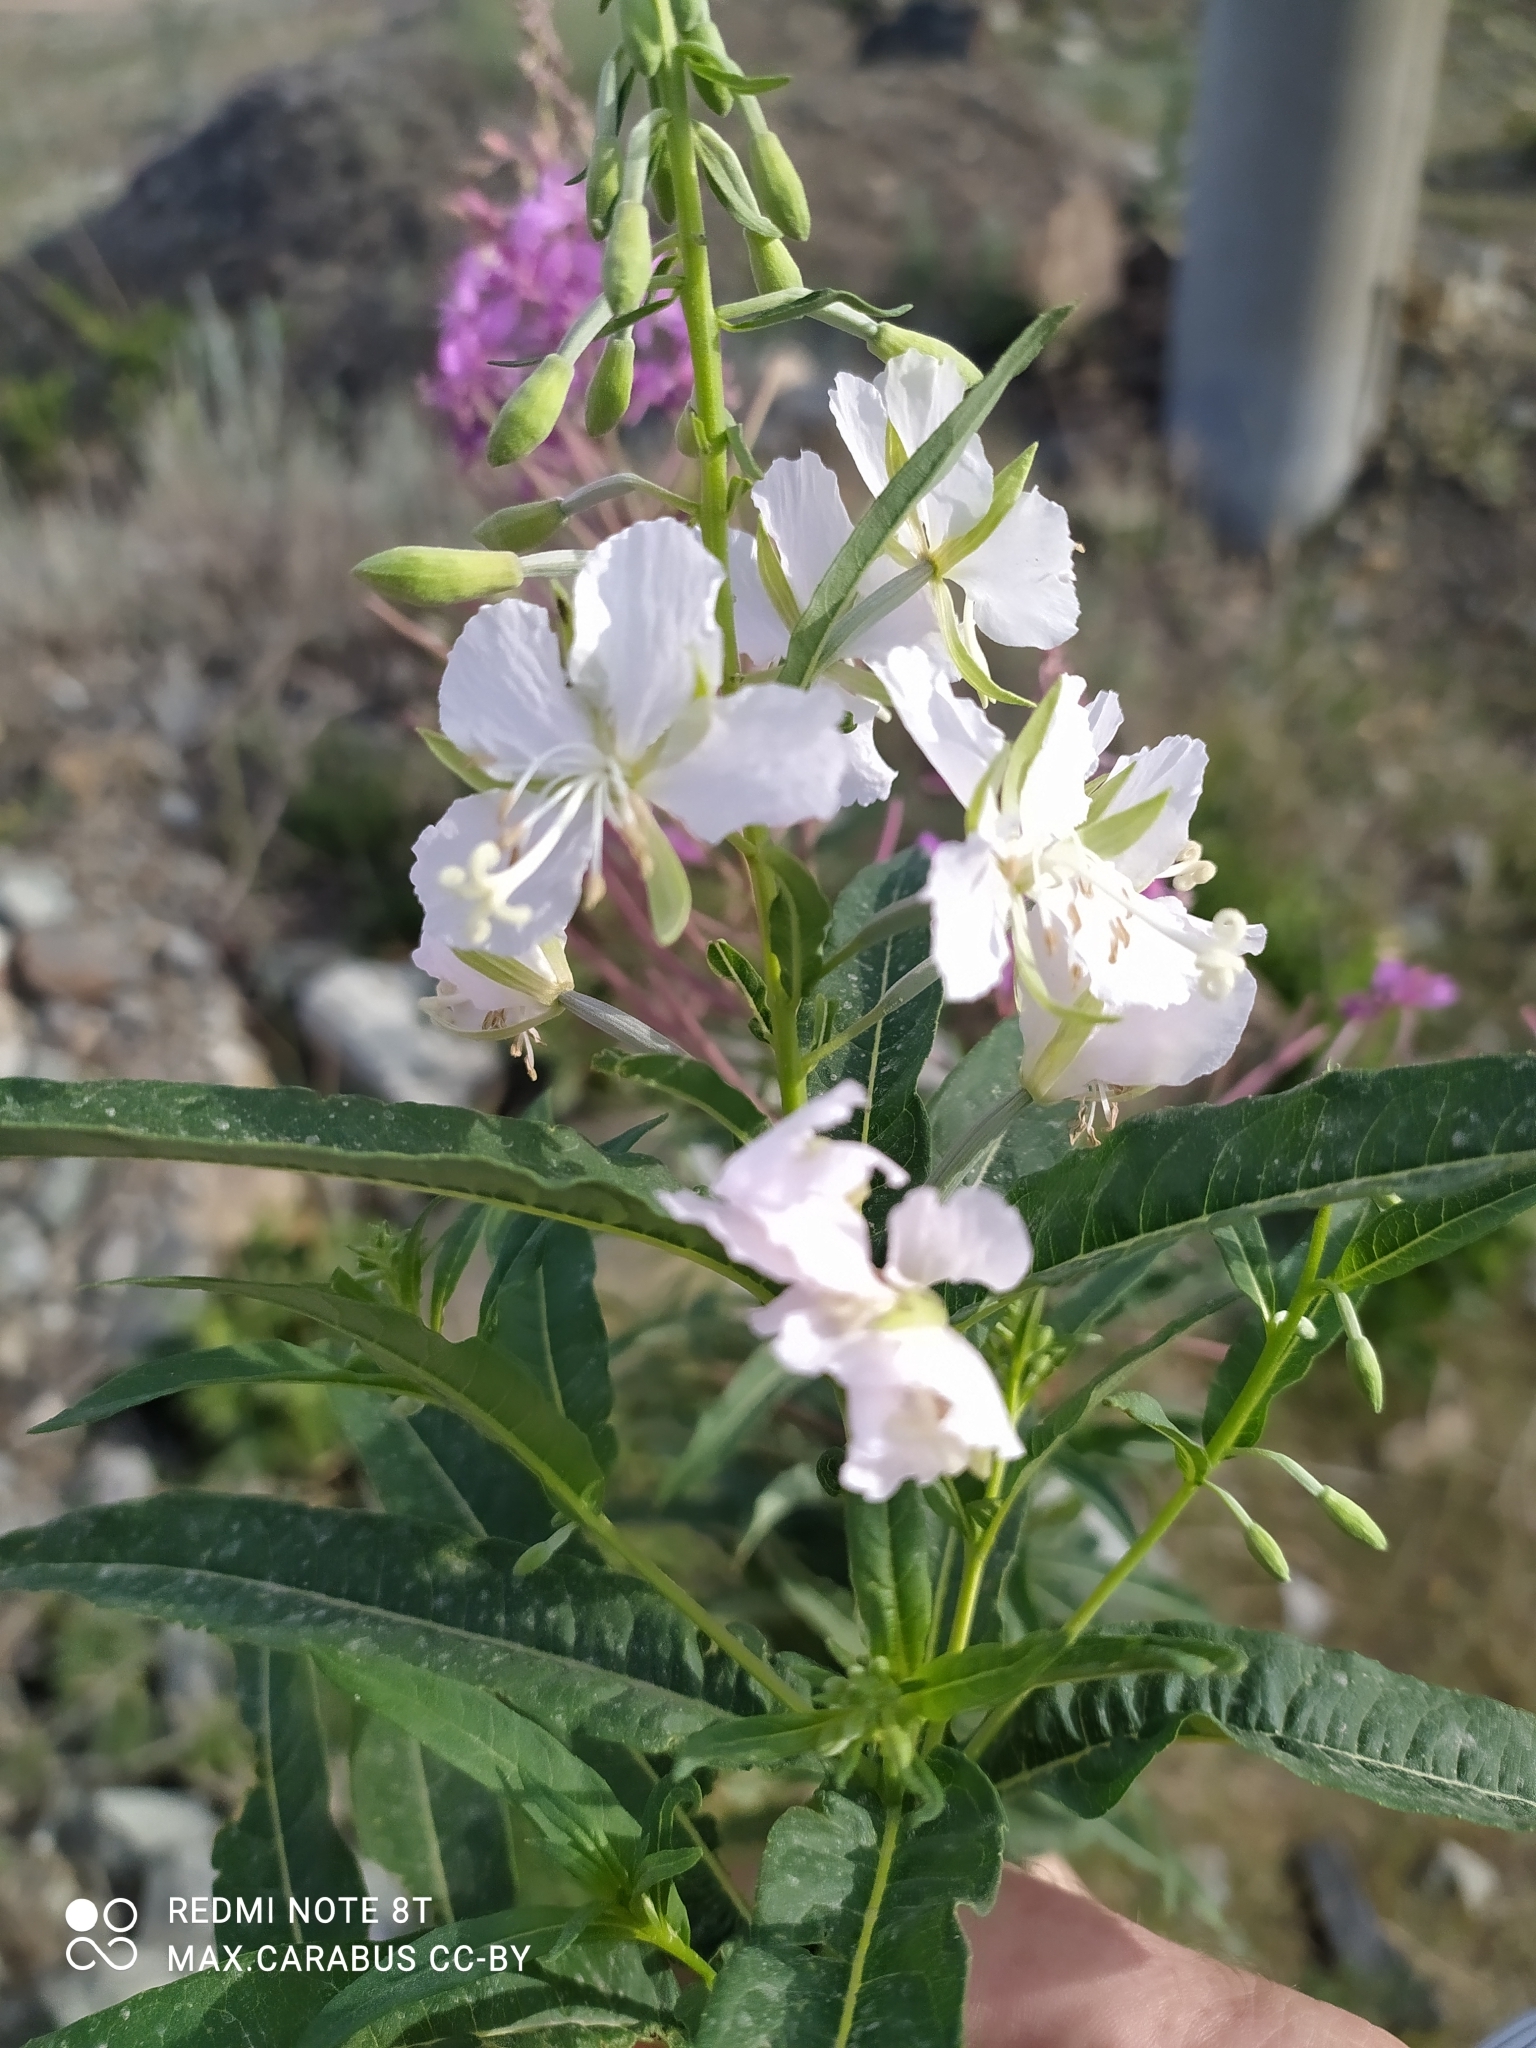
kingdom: Plantae
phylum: Tracheophyta
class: Magnoliopsida
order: Myrtales
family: Onagraceae
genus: Chamaenerion
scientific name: Chamaenerion angustifolium
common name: Fireweed
